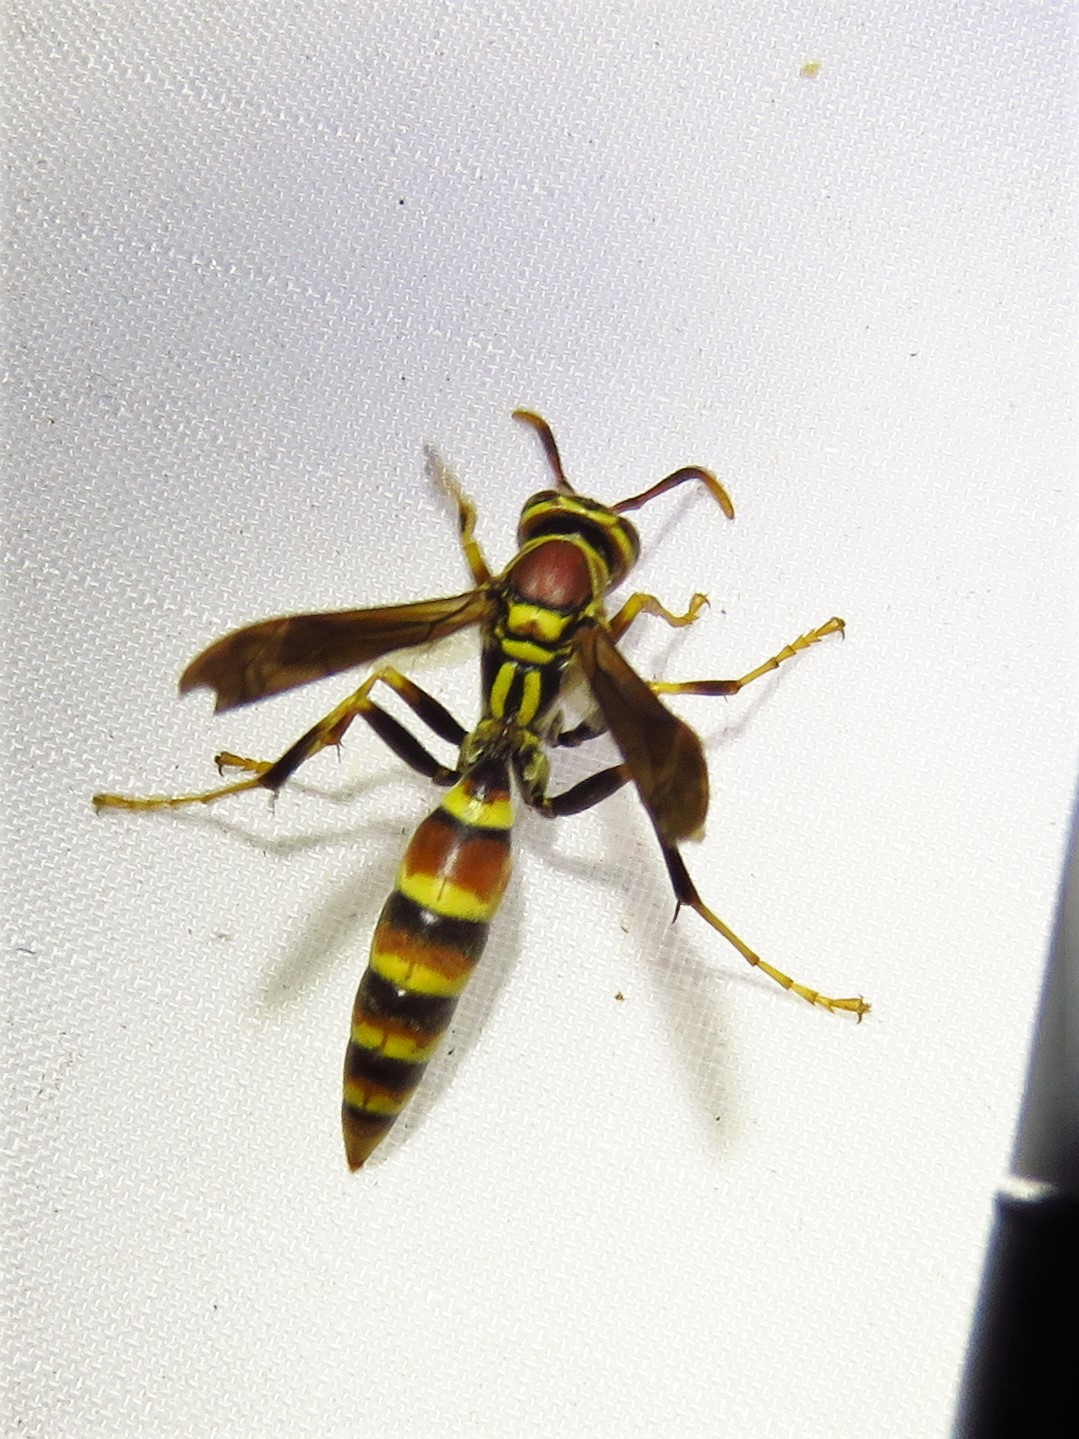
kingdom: Animalia
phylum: Arthropoda
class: Insecta
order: Hymenoptera
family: Eumenidae
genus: Polistes
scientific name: Polistes exclamans
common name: Paper wasp
